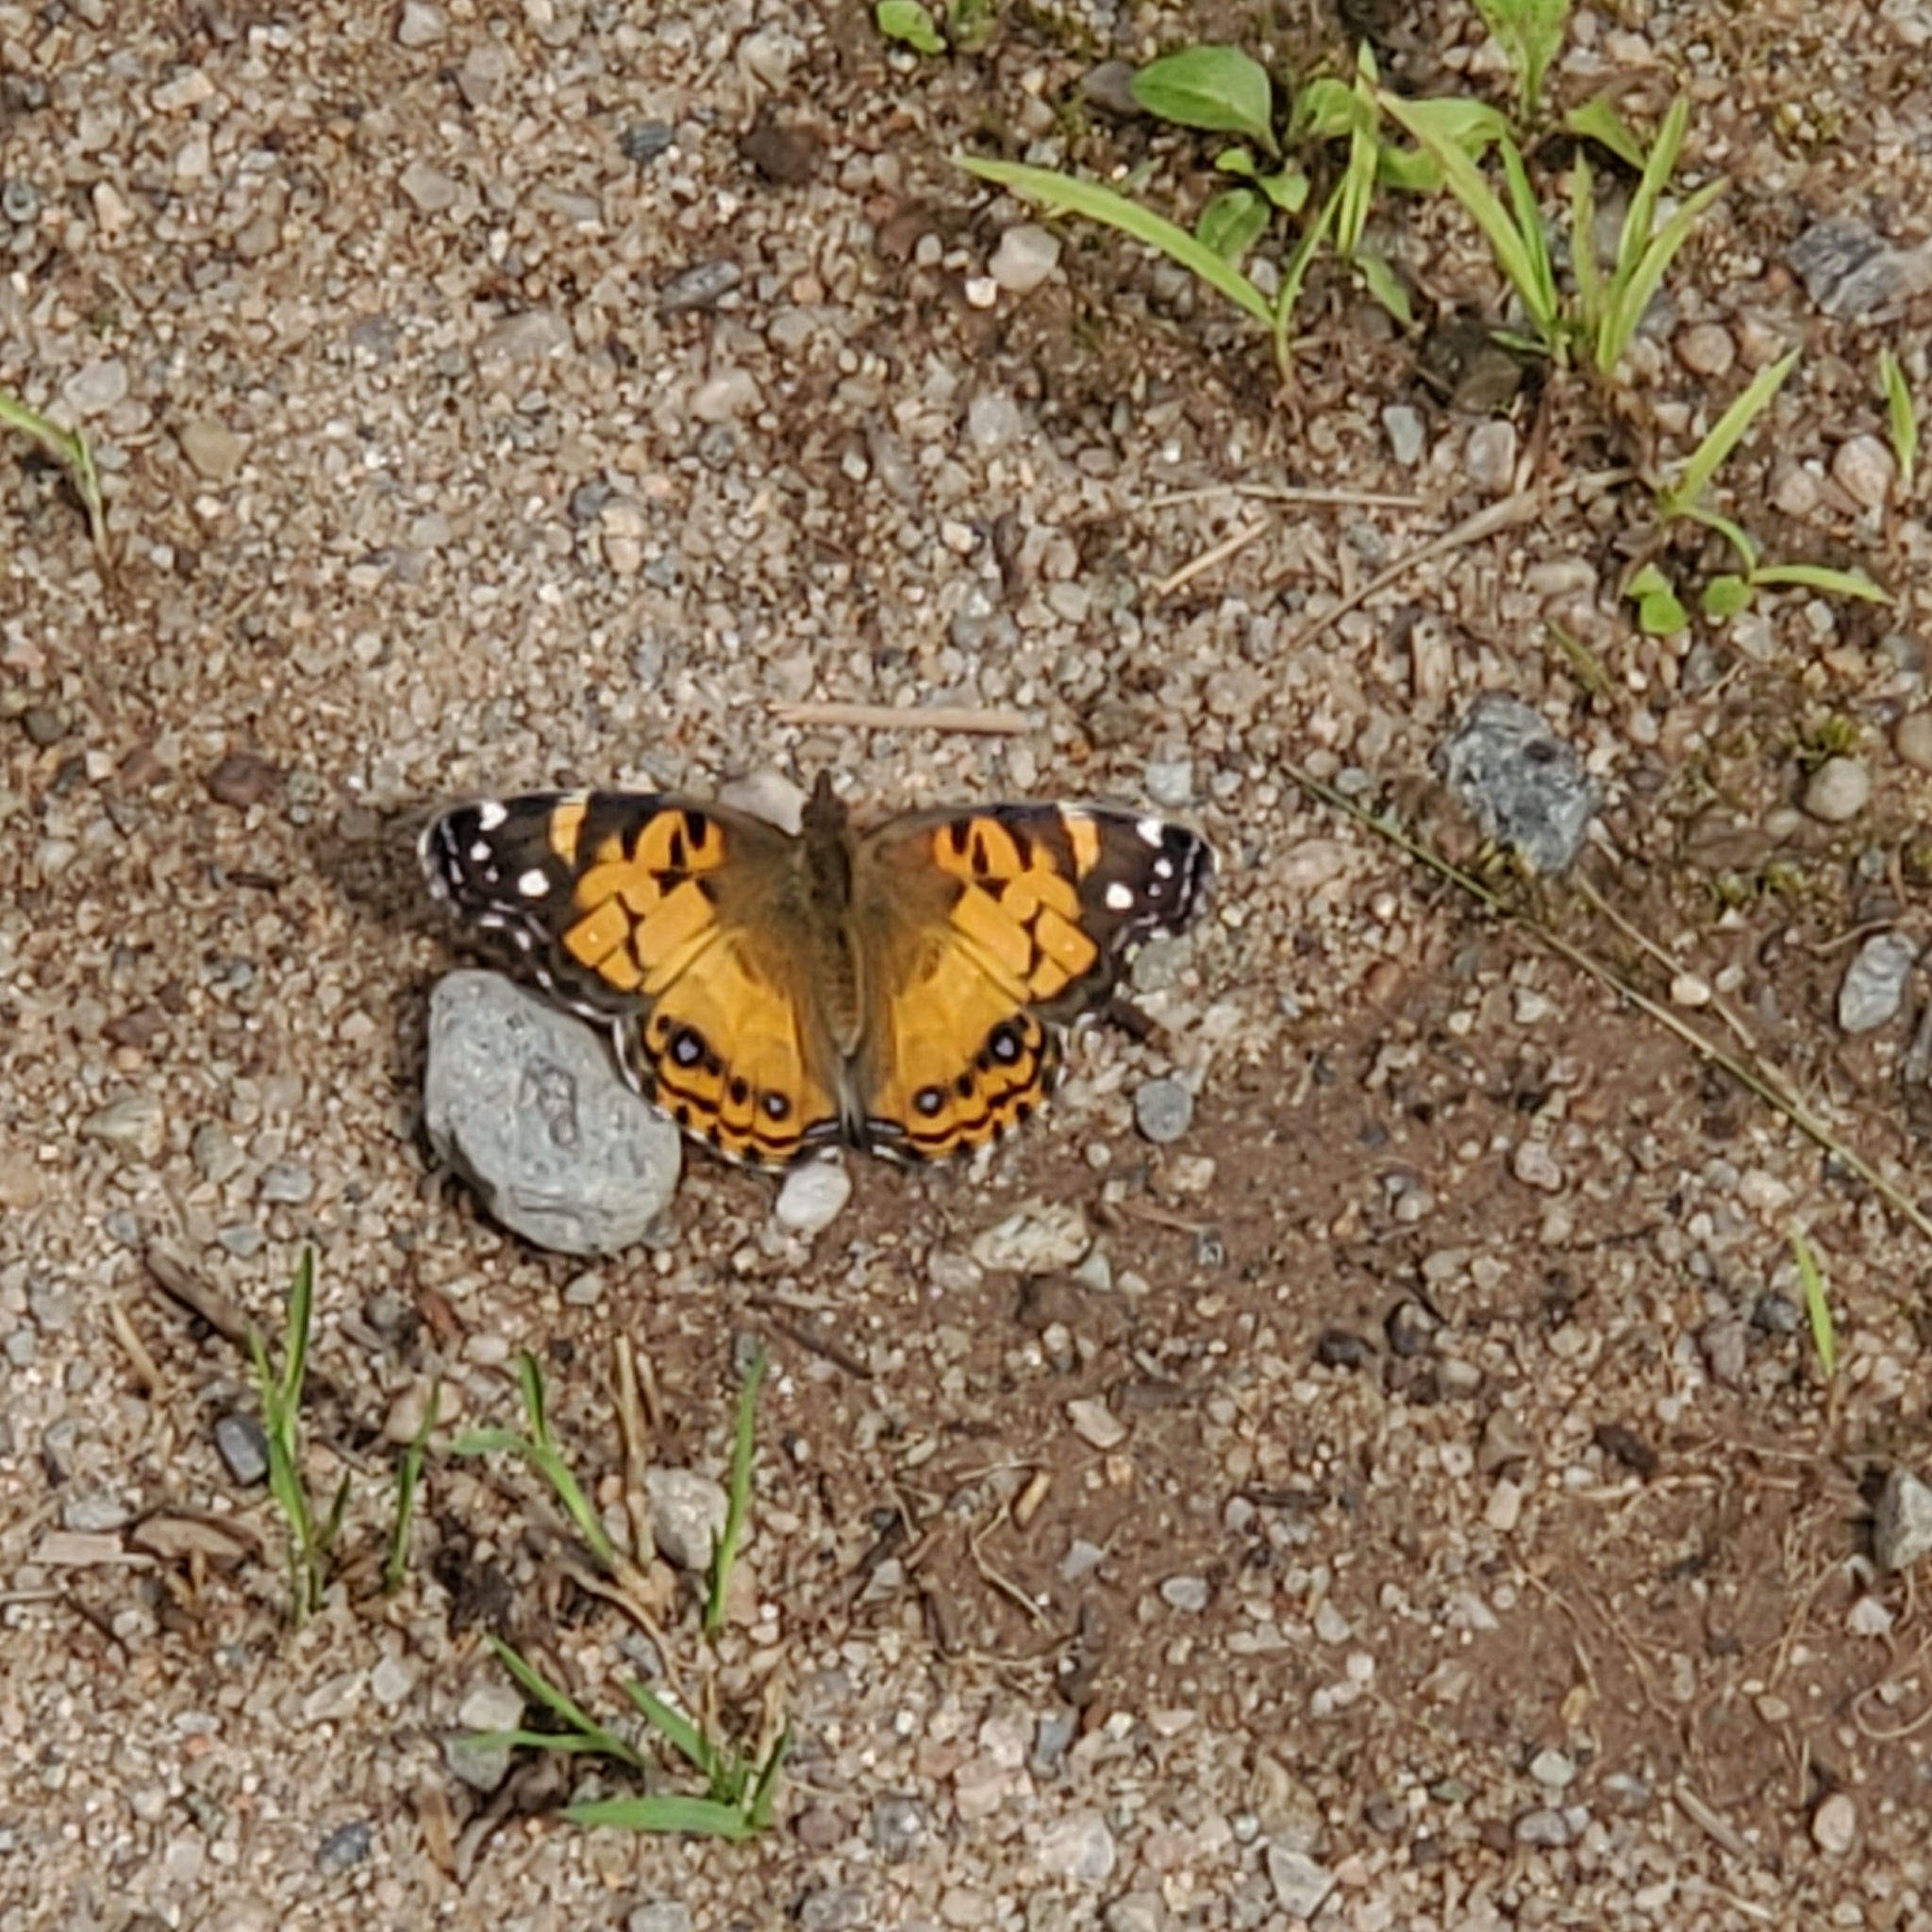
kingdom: Animalia
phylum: Arthropoda
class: Insecta
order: Lepidoptera
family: Nymphalidae
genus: Vanessa
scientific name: Vanessa virginiensis
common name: American lady
